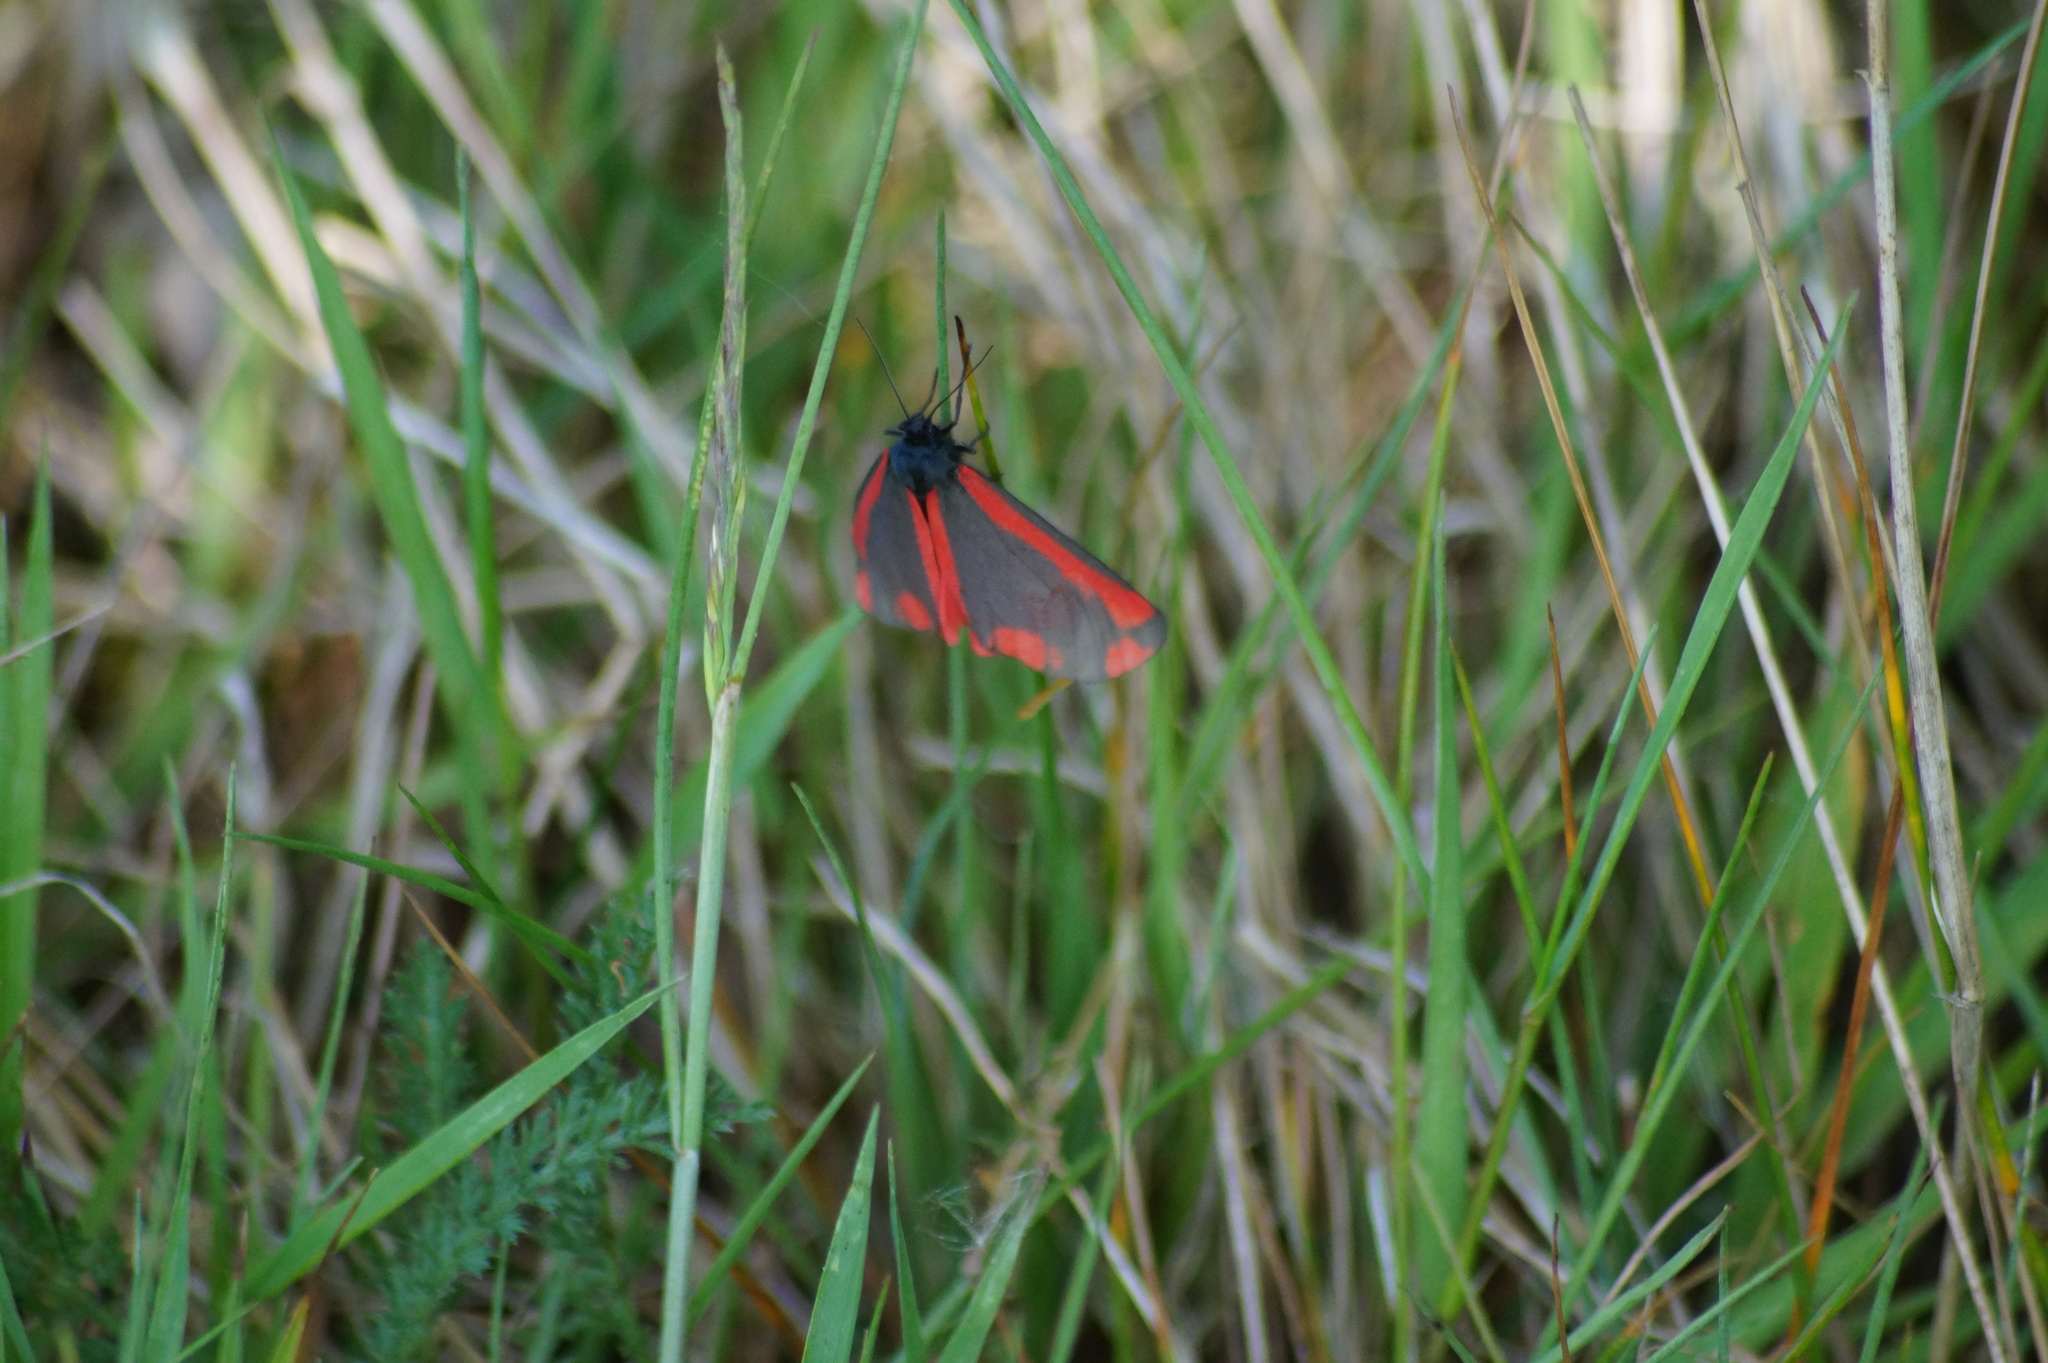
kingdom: Animalia
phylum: Arthropoda
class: Insecta
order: Lepidoptera
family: Erebidae
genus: Tyria
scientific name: Tyria jacobaeae
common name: Cinnabar
